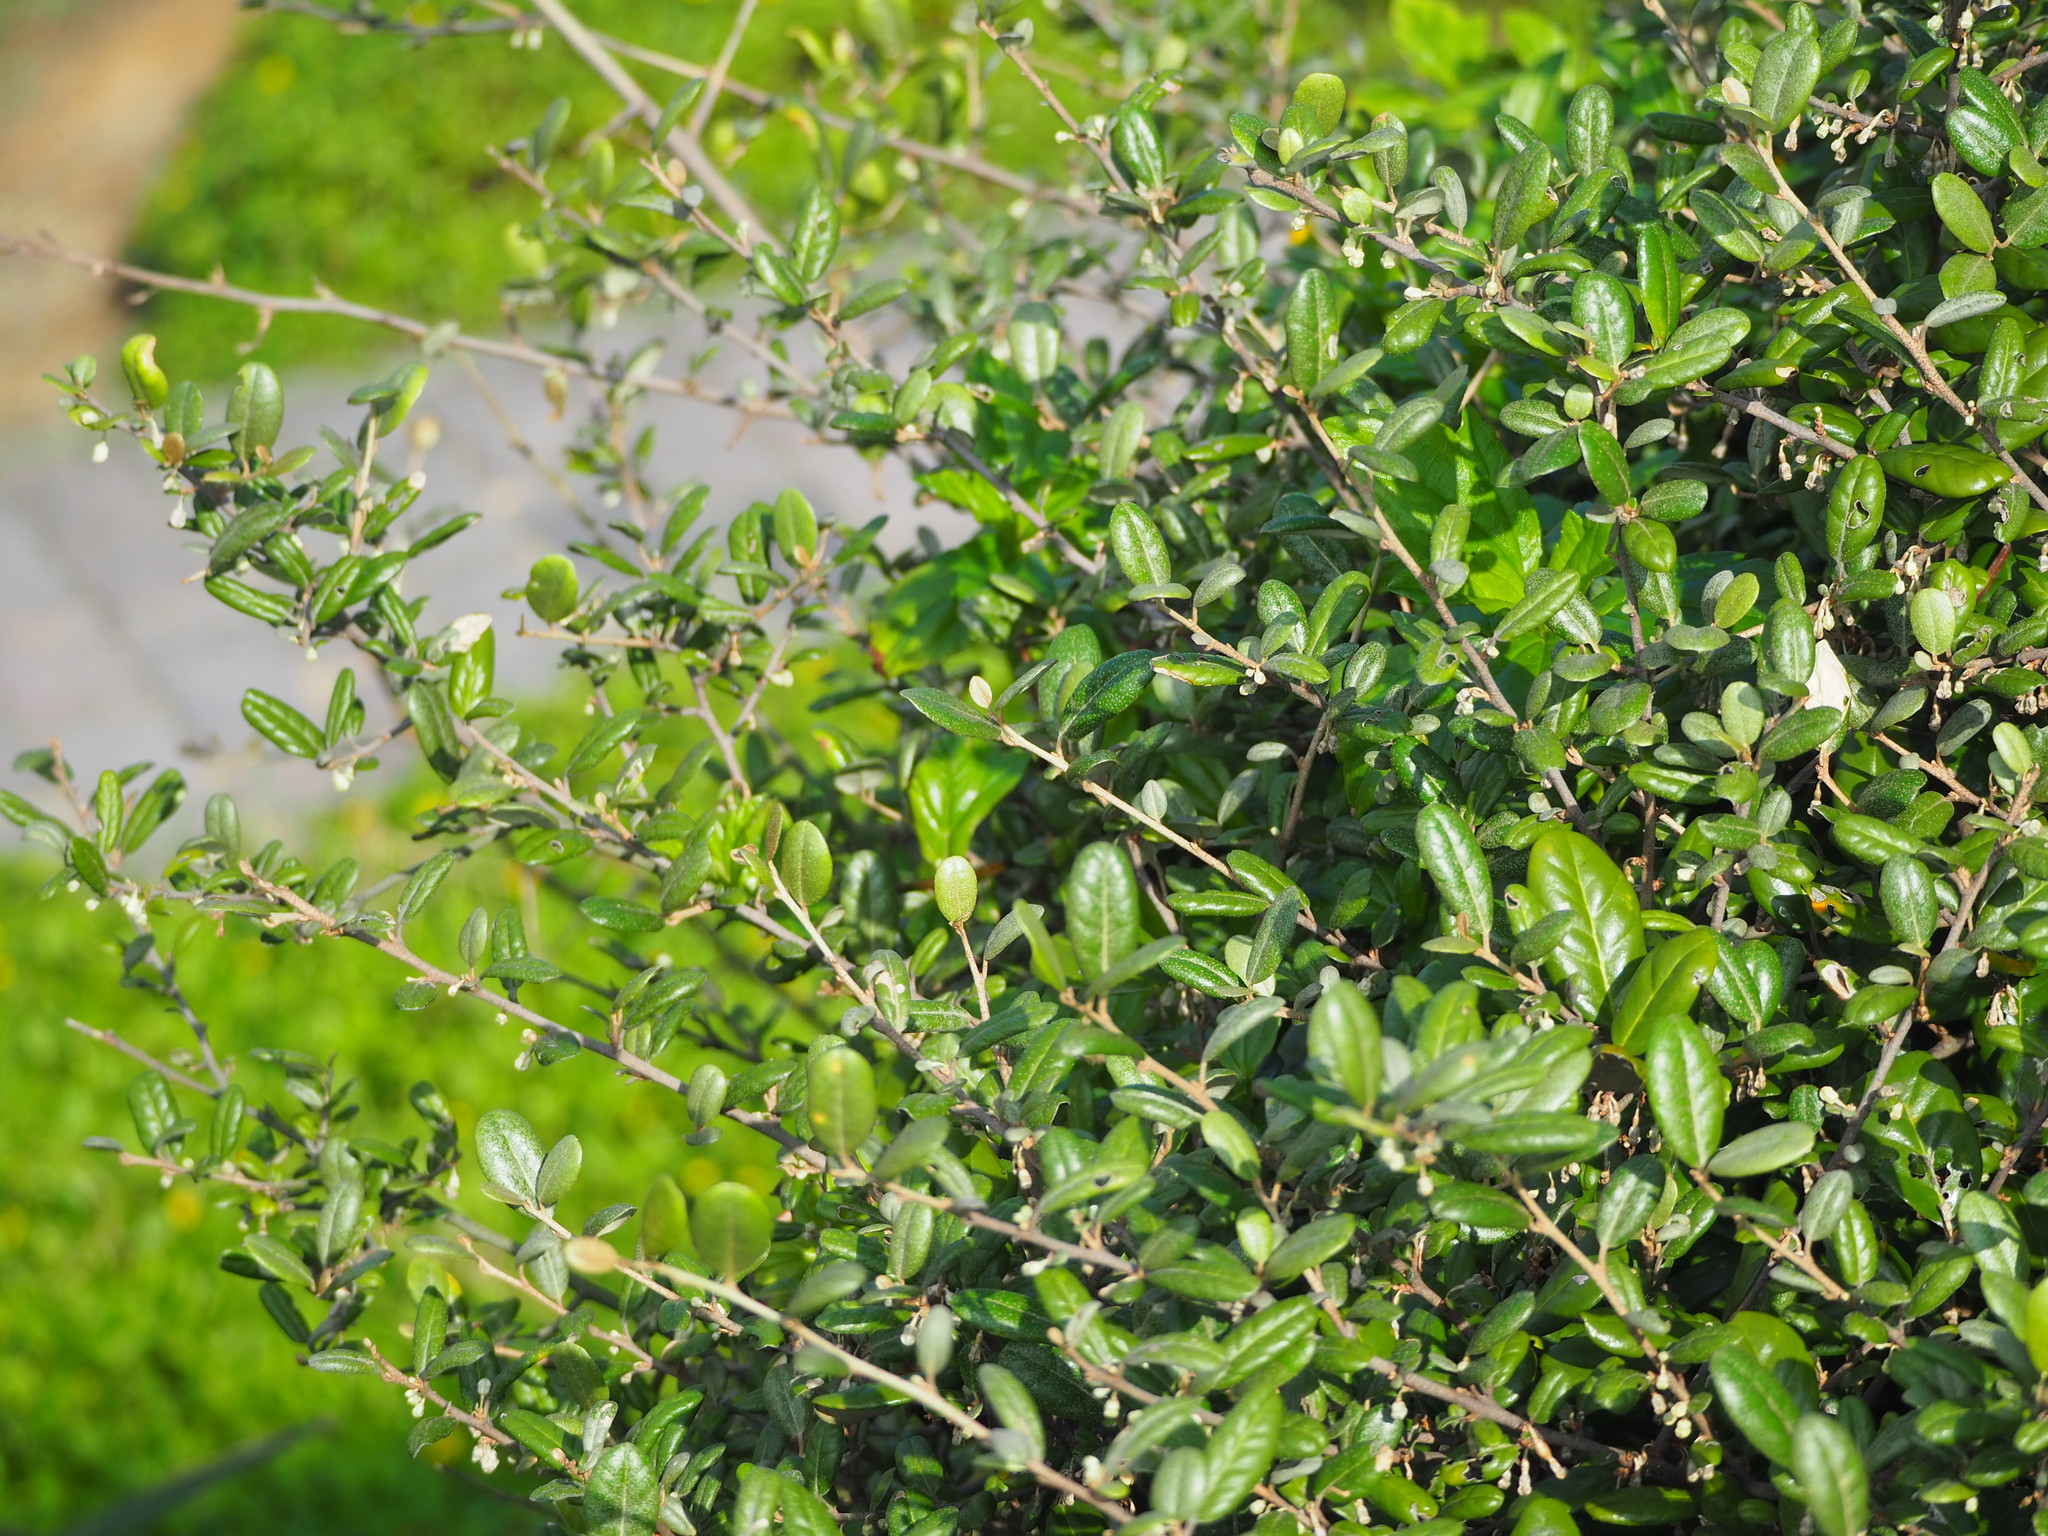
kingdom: Plantae
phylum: Tracheophyta
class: Magnoliopsida
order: Rosales
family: Elaeagnaceae
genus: Elaeagnus
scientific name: Elaeagnus formosana
